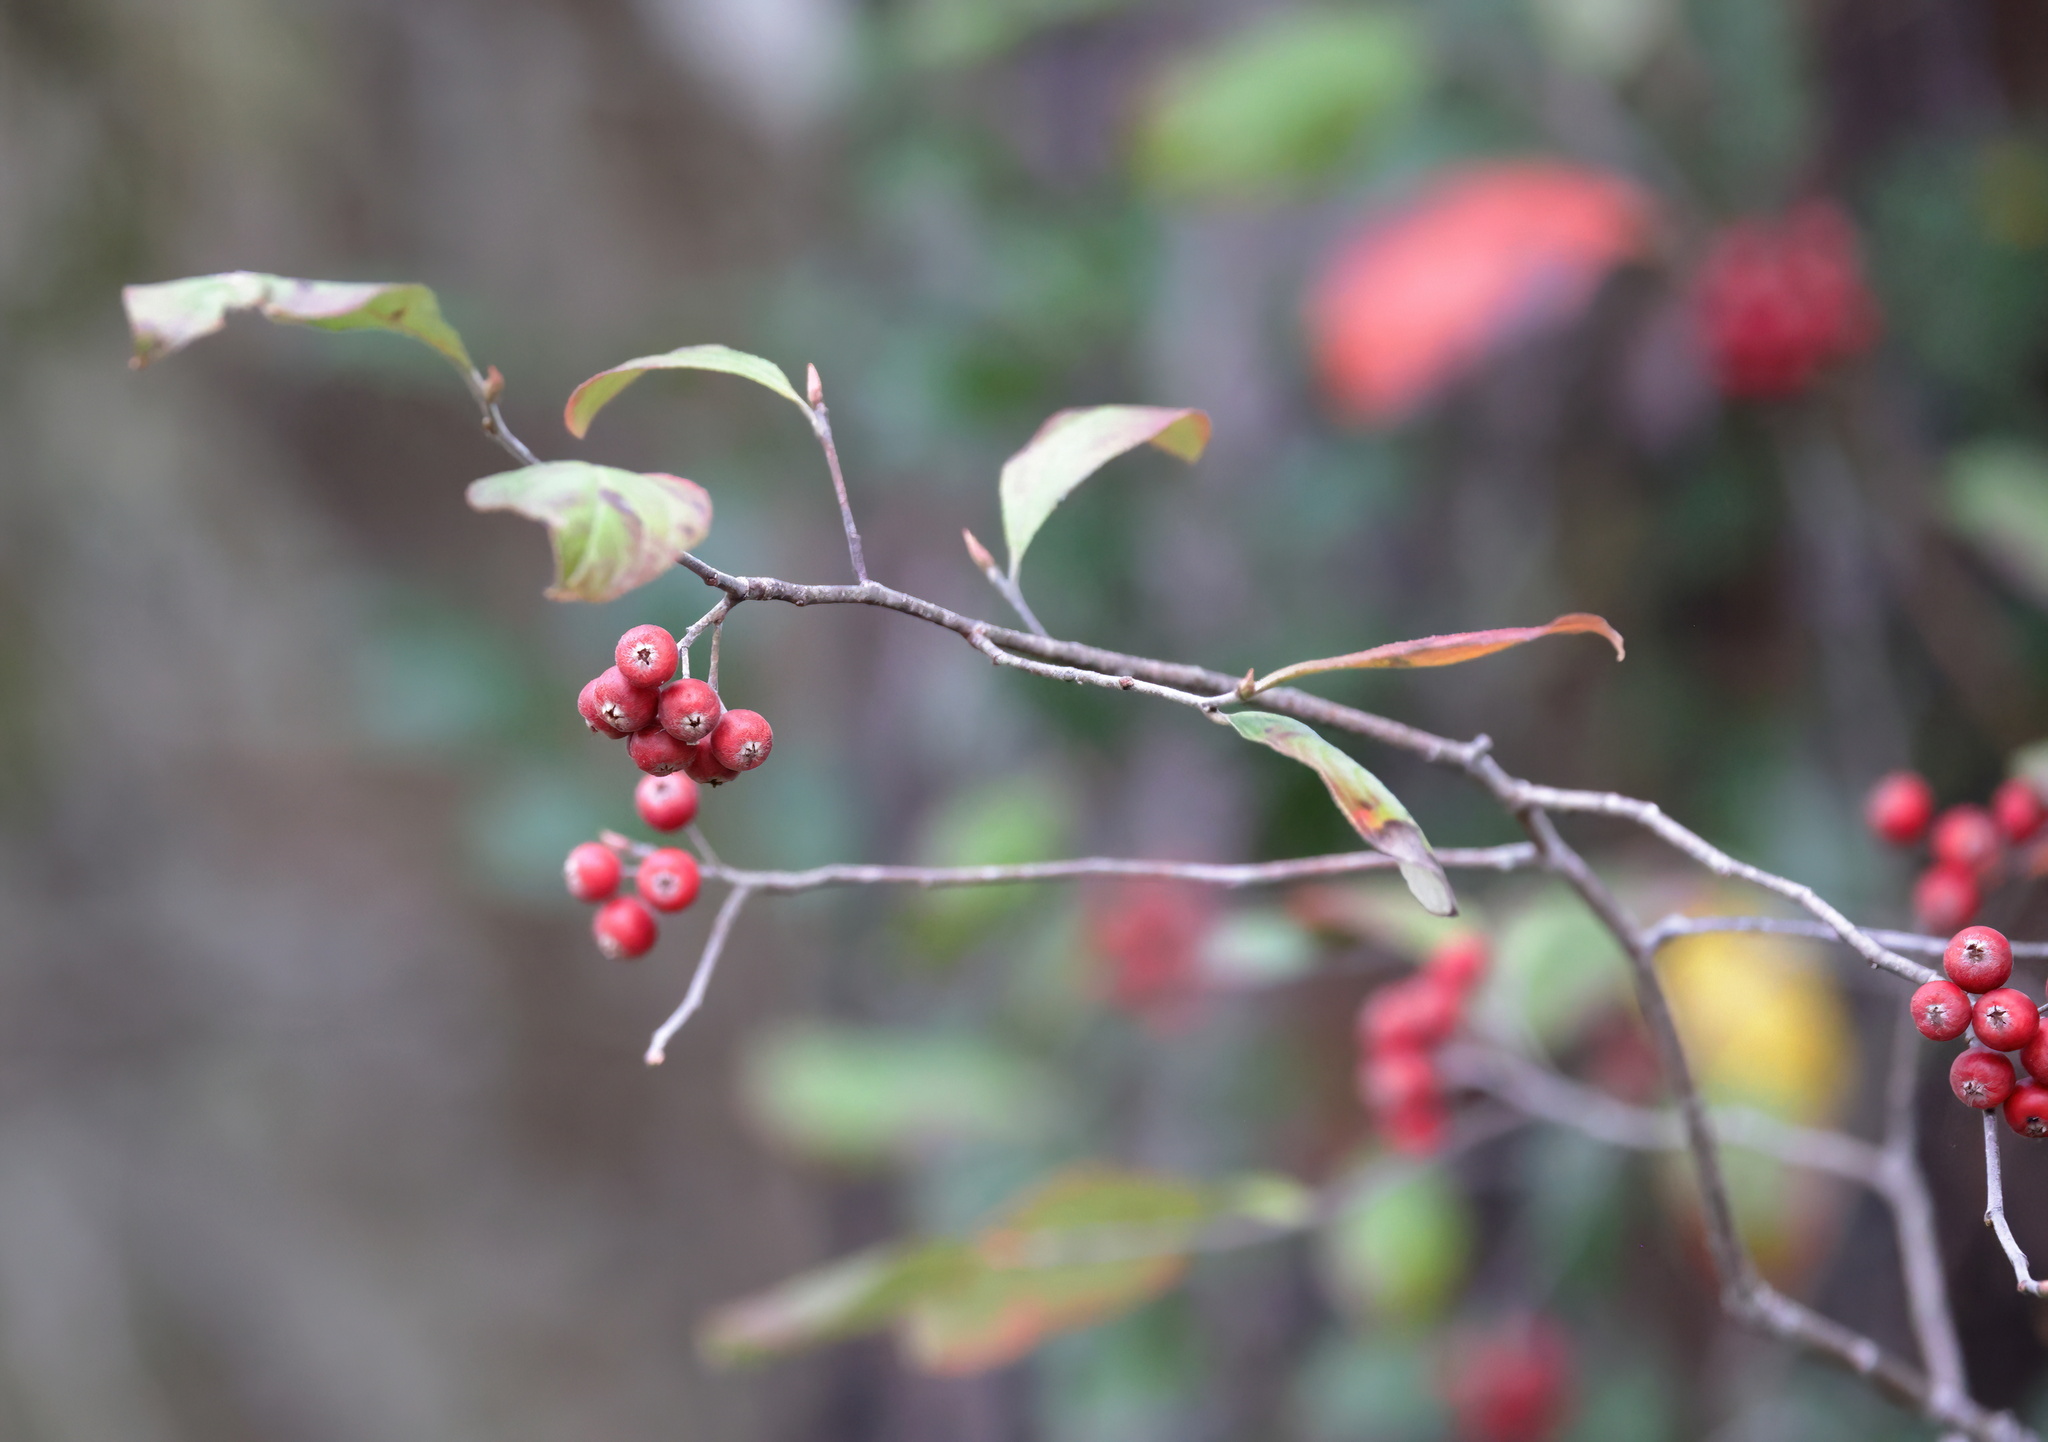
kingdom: Plantae
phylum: Tracheophyta
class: Magnoliopsida
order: Rosales
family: Rosaceae
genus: Aronia
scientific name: Aronia arbutifolia
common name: Red chokeberry
